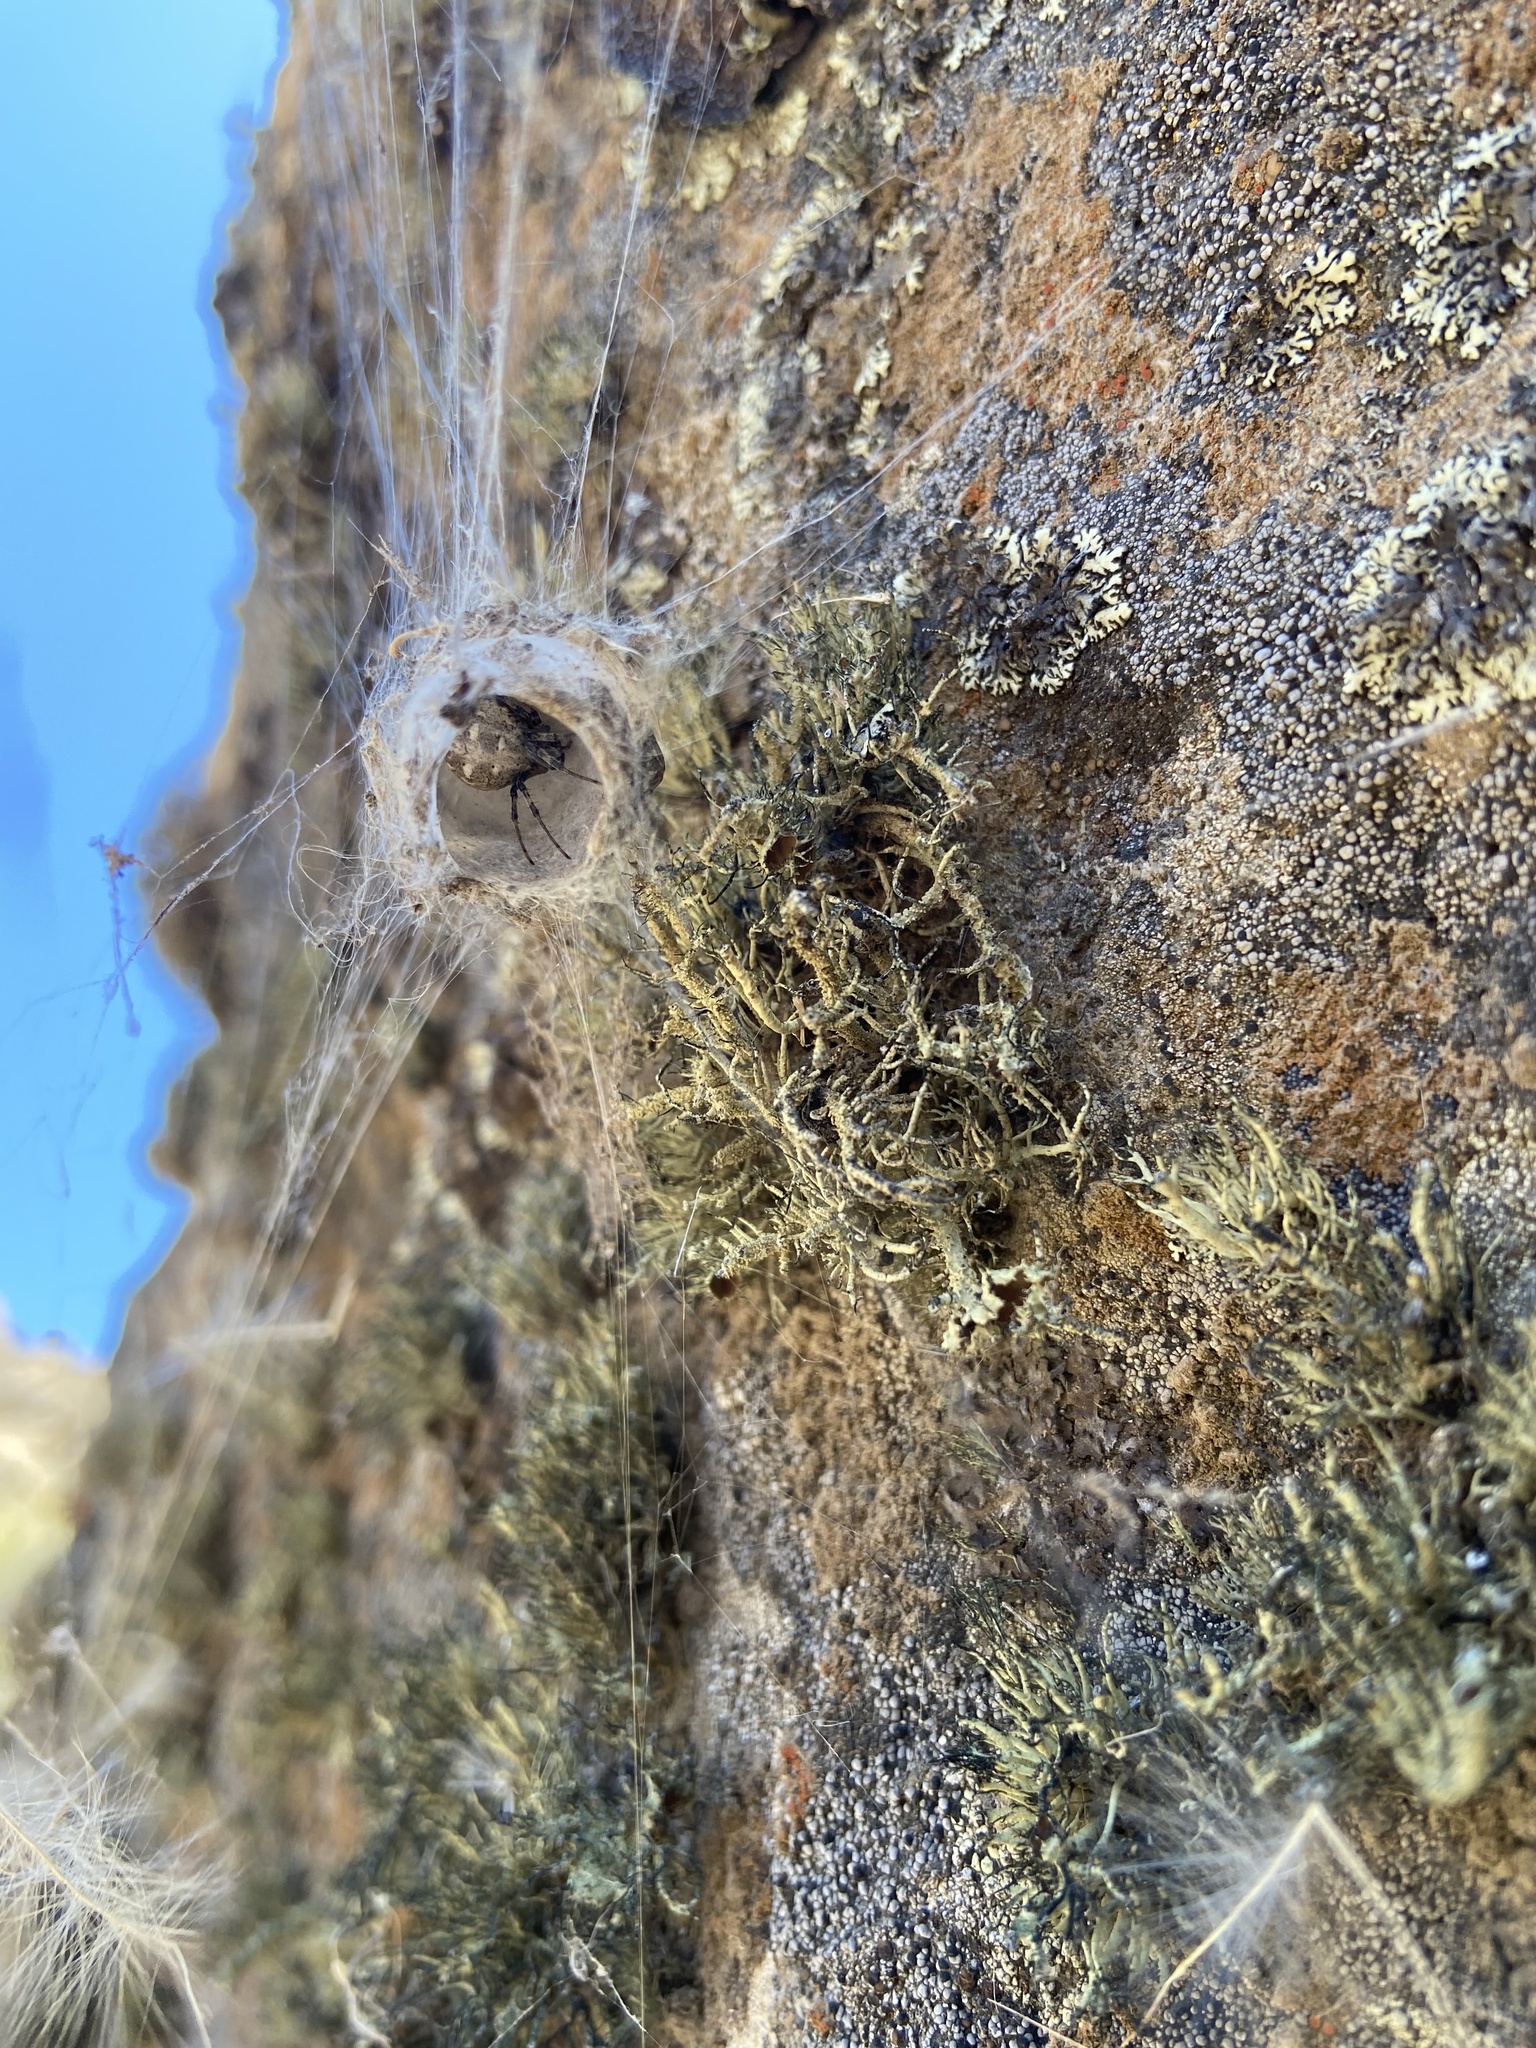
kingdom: Animalia
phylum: Arthropoda
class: Arachnida
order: Araneae
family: Araneidae
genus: Metepeira
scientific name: Metepeira
